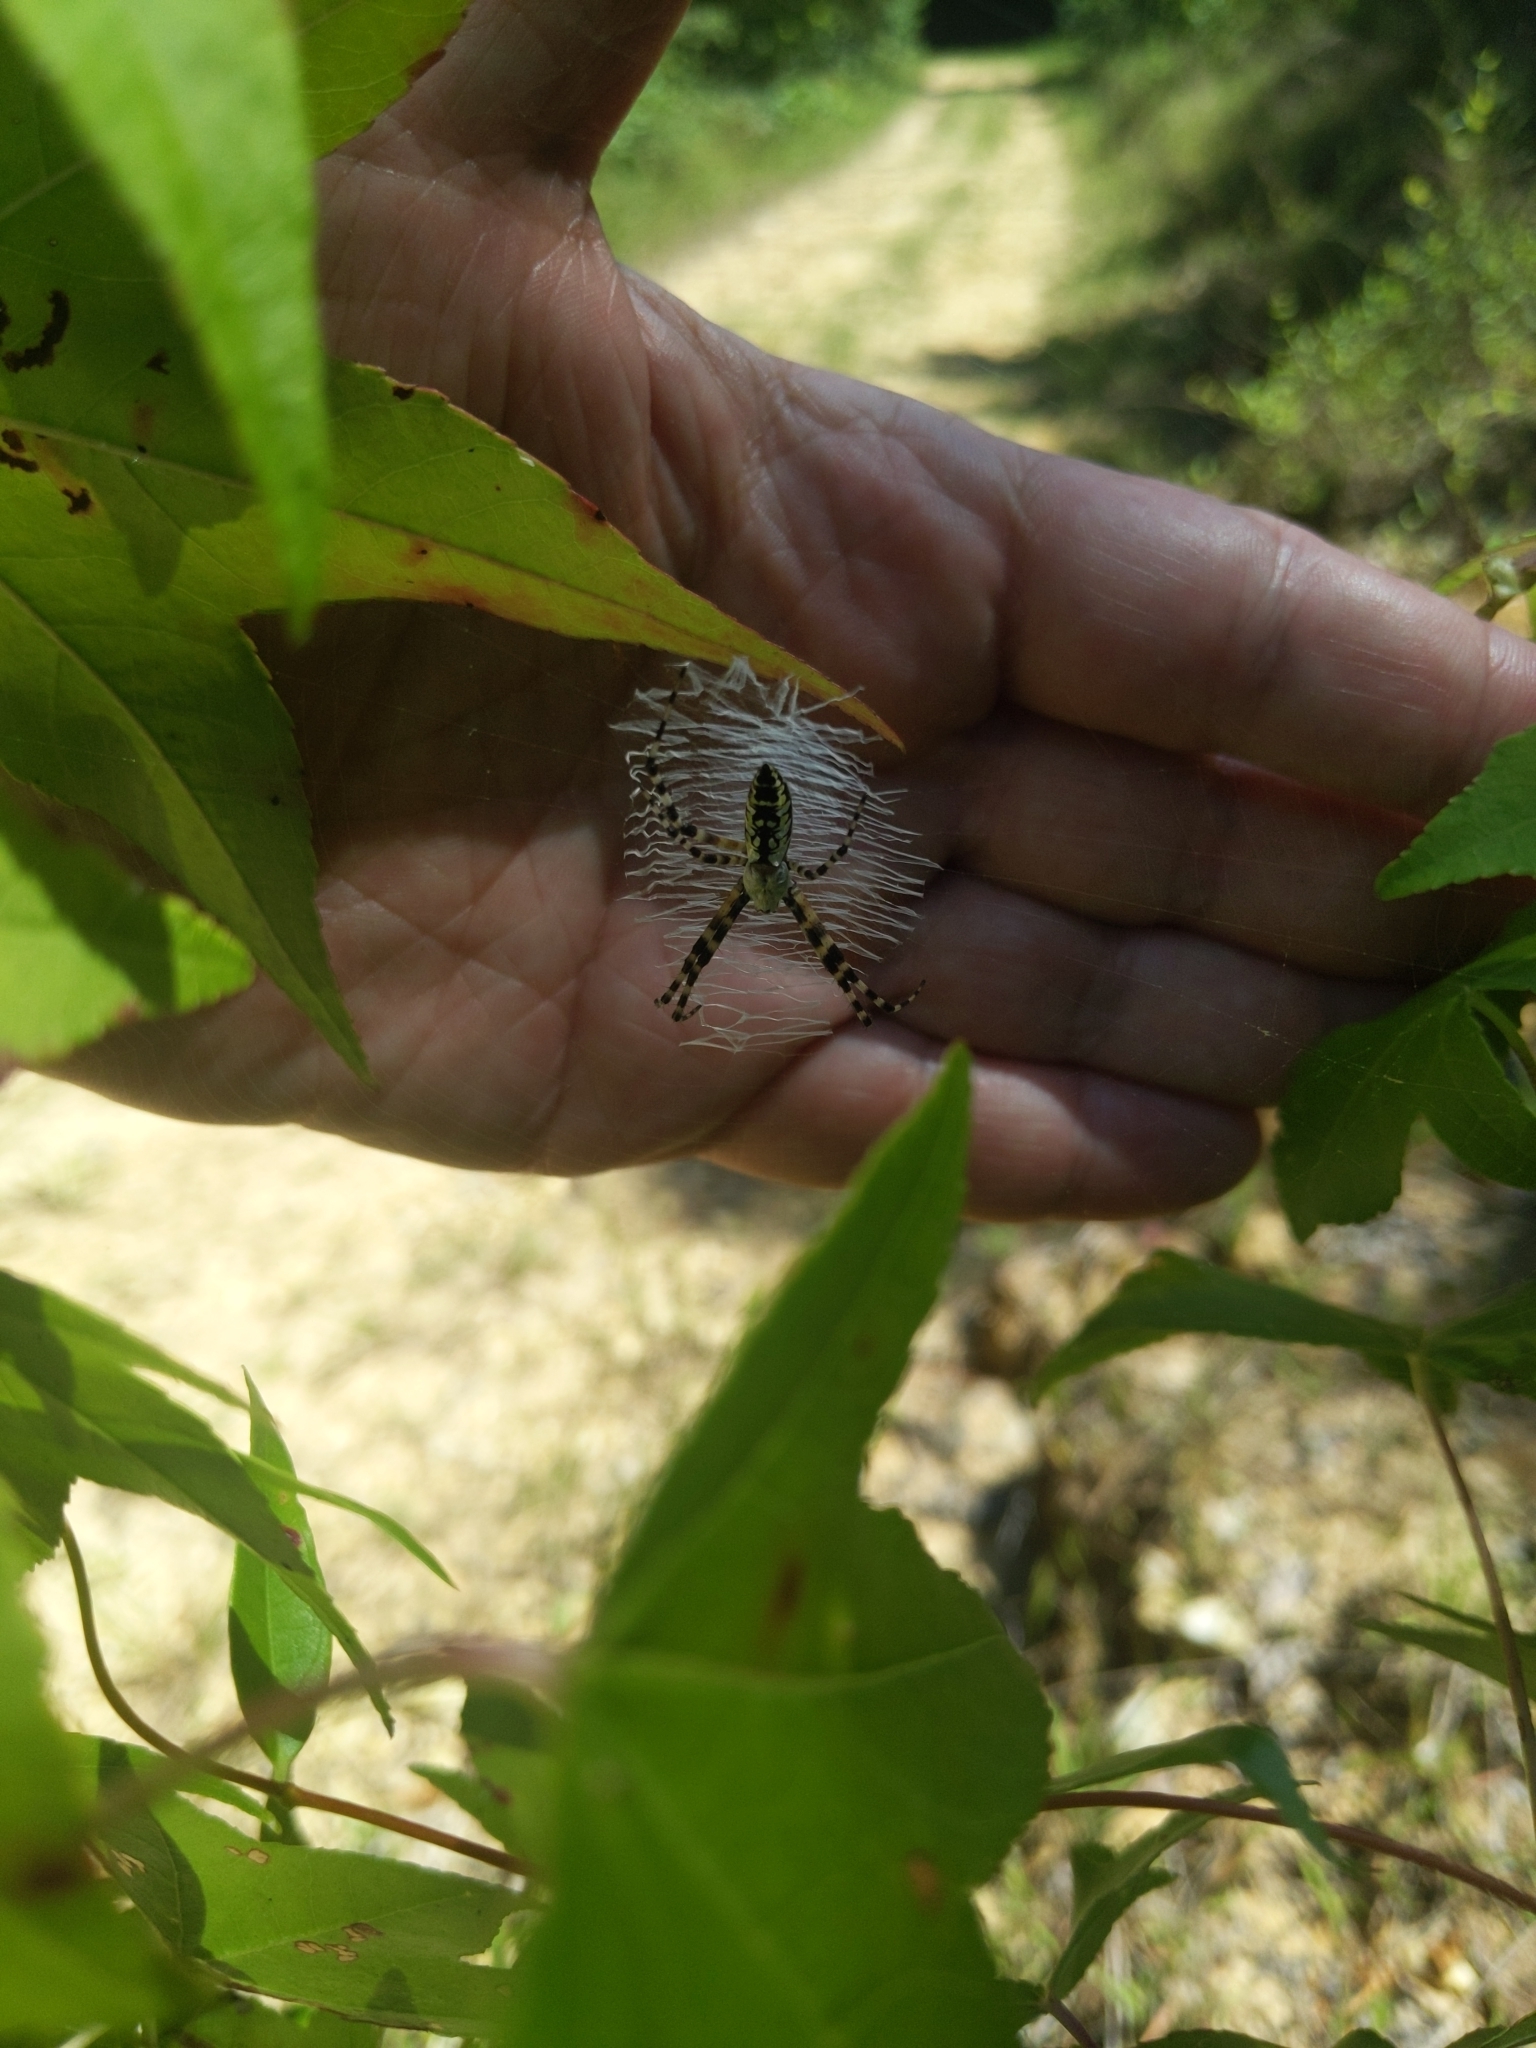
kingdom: Animalia
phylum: Arthropoda
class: Arachnida
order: Araneae
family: Araneidae
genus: Argiope
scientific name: Argiope aurantia
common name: Orb weavers
